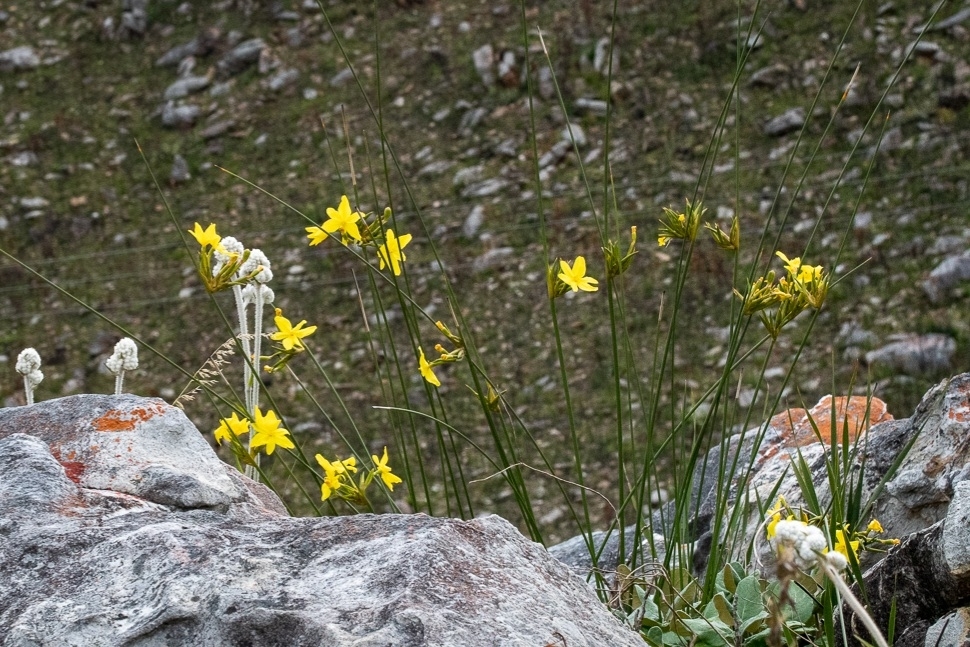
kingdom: Plantae
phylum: Tracheophyta
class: Liliopsida
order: Asparagales
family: Iridaceae
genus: Bobartia
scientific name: Bobartia indica
